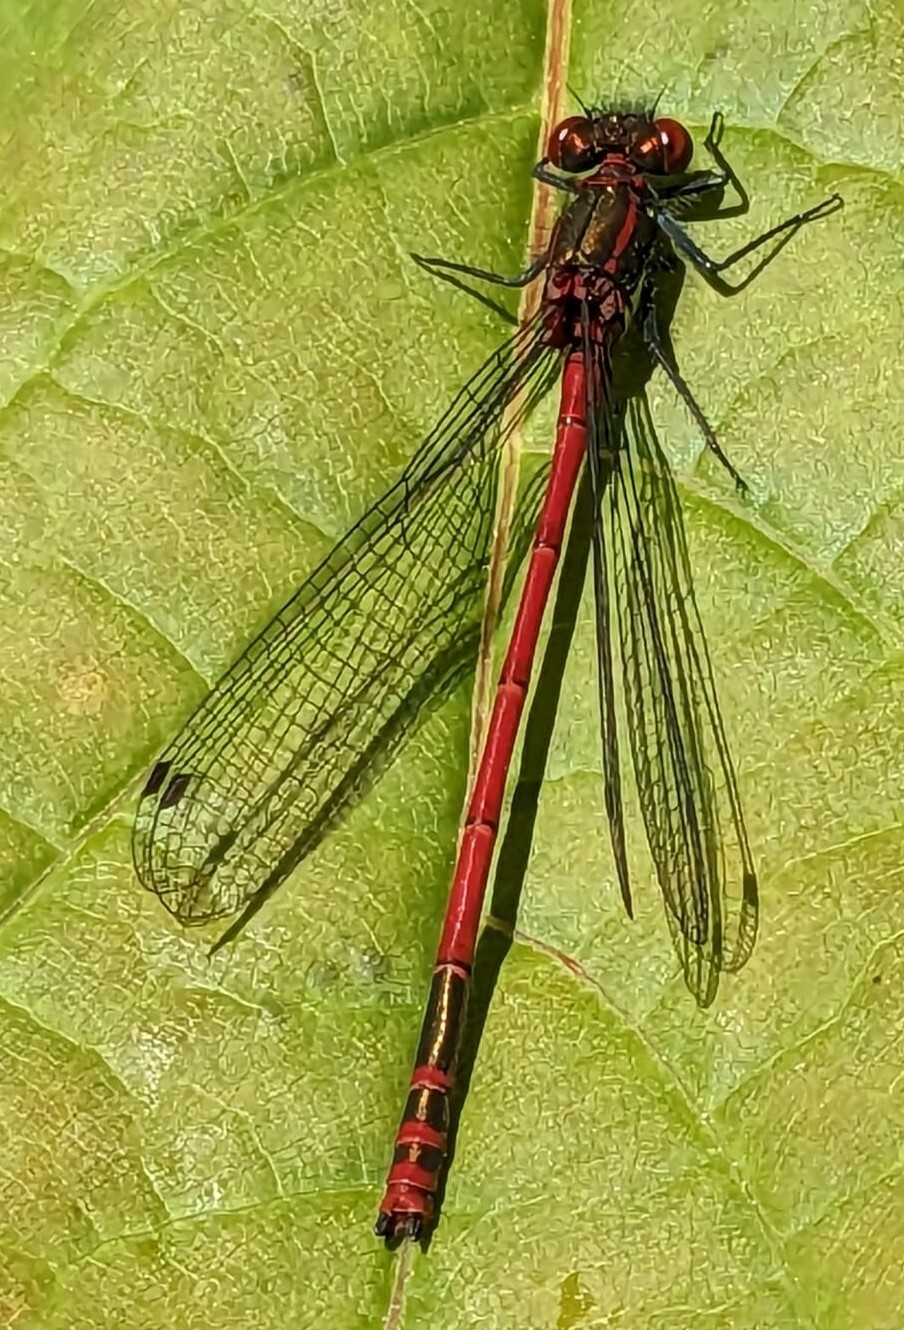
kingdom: Animalia
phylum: Arthropoda
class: Insecta
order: Odonata
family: Coenagrionidae
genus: Pyrrhosoma
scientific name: Pyrrhosoma nymphula
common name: Large red damsel
